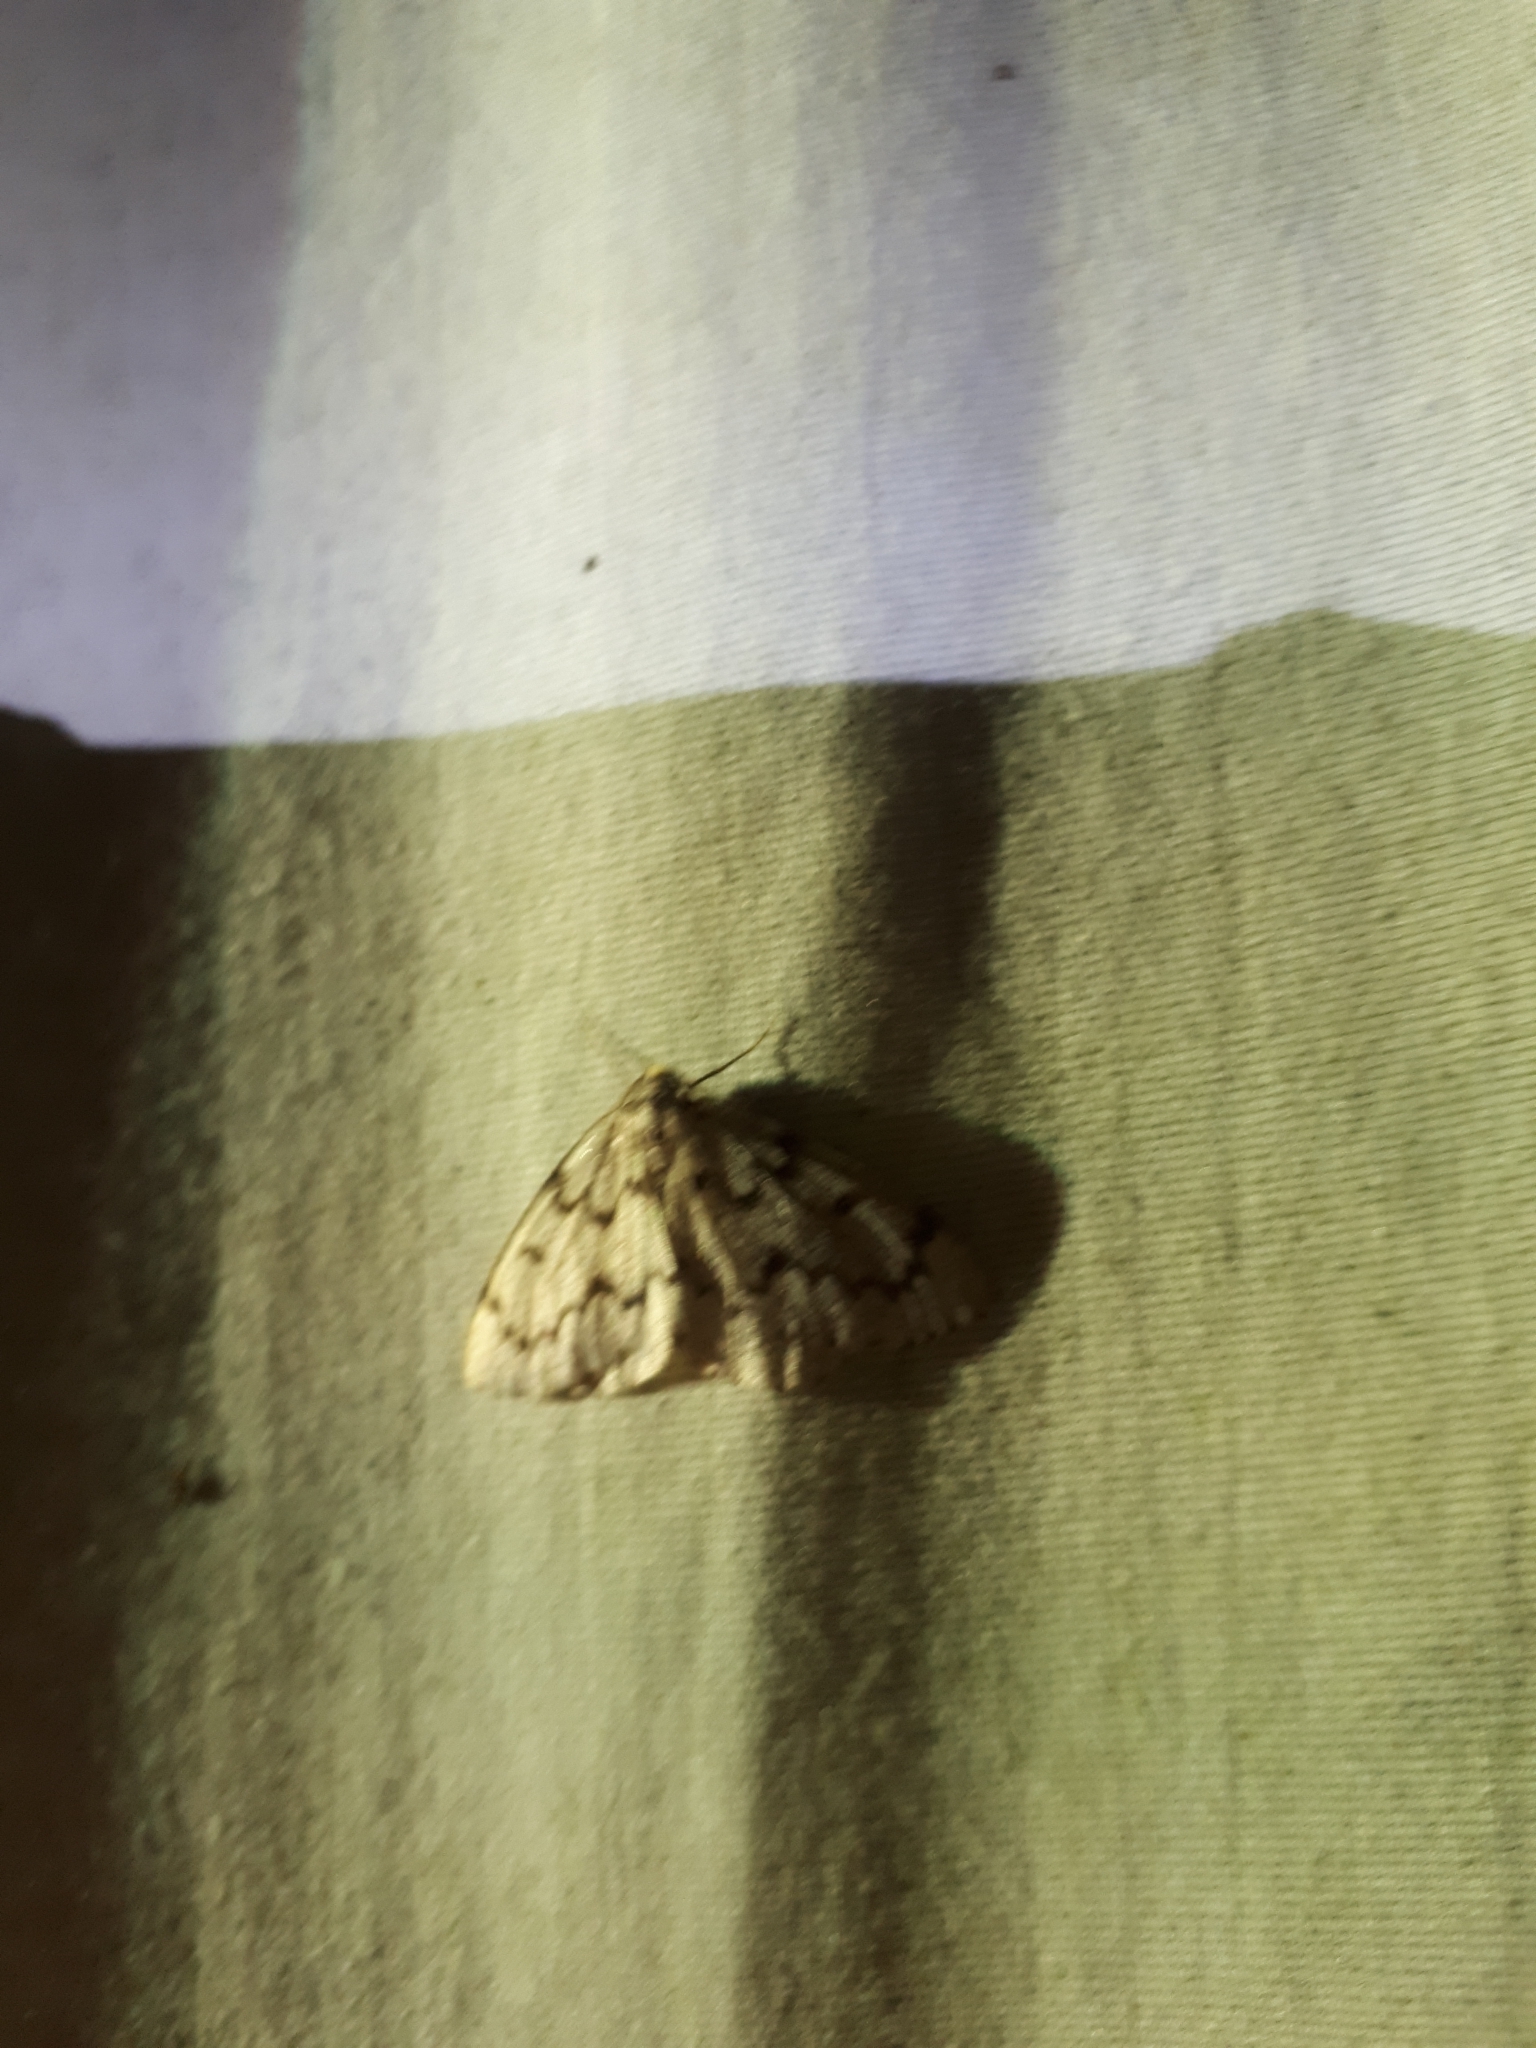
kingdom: Animalia
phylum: Arthropoda
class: Insecta
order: Lepidoptera
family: Geometridae
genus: Nepytia
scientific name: Nepytia canosaria
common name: False hemlock looper
